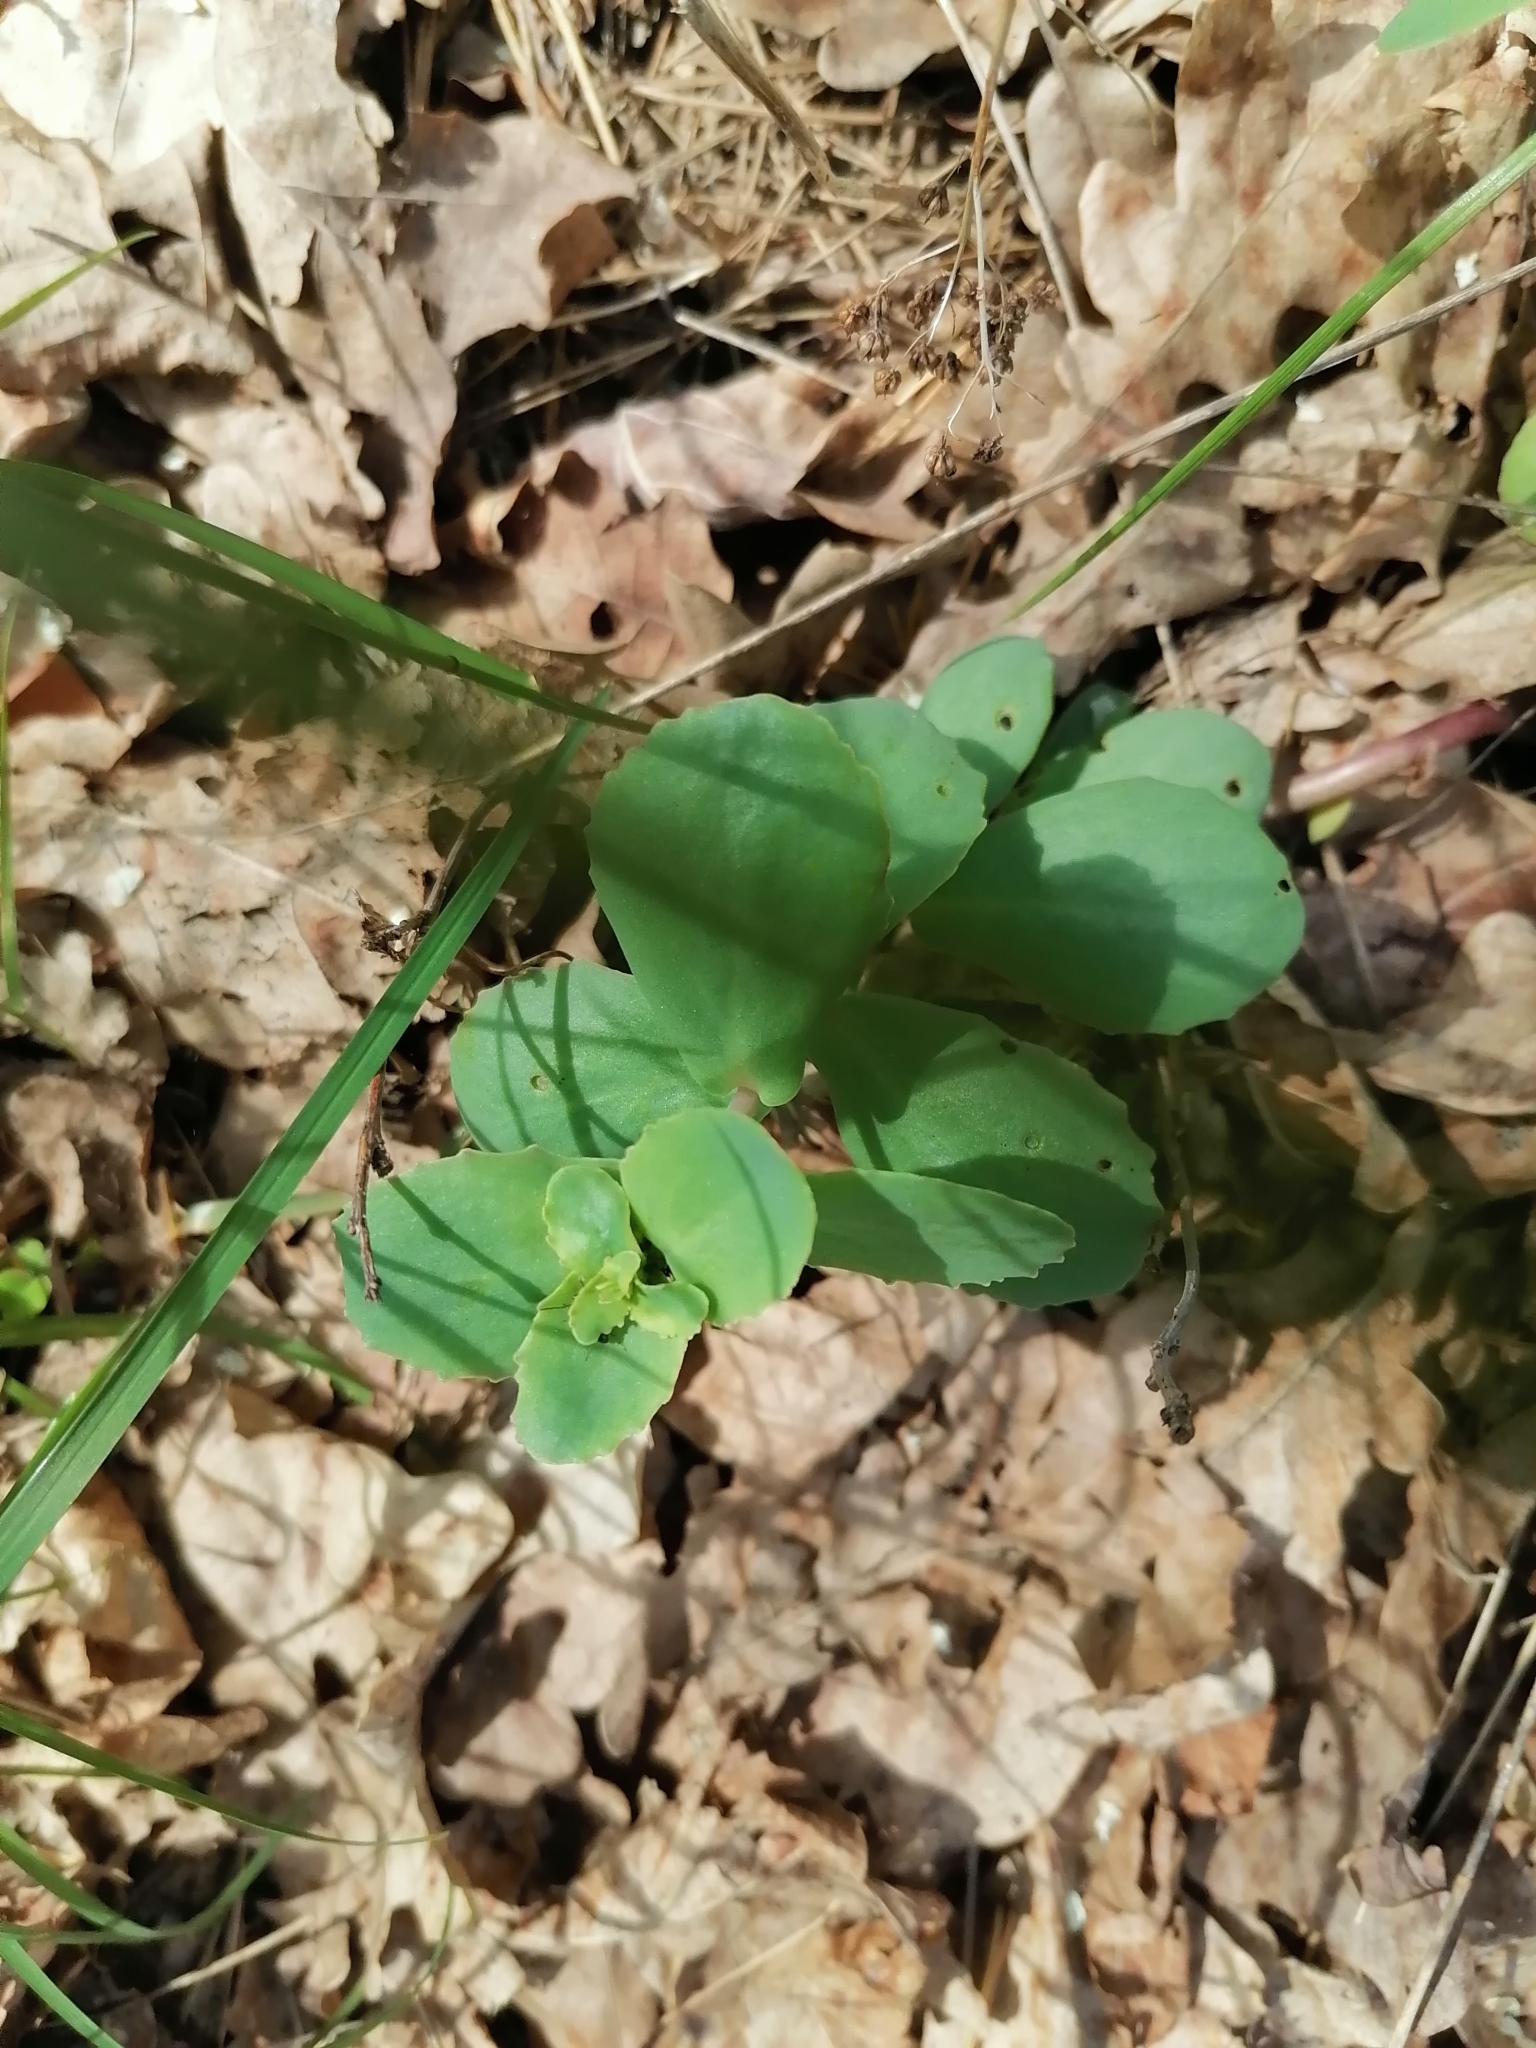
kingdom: Plantae
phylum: Tracheophyta
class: Magnoliopsida
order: Saxifragales
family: Crassulaceae
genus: Hylotelephium
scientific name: Hylotelephium maximum
